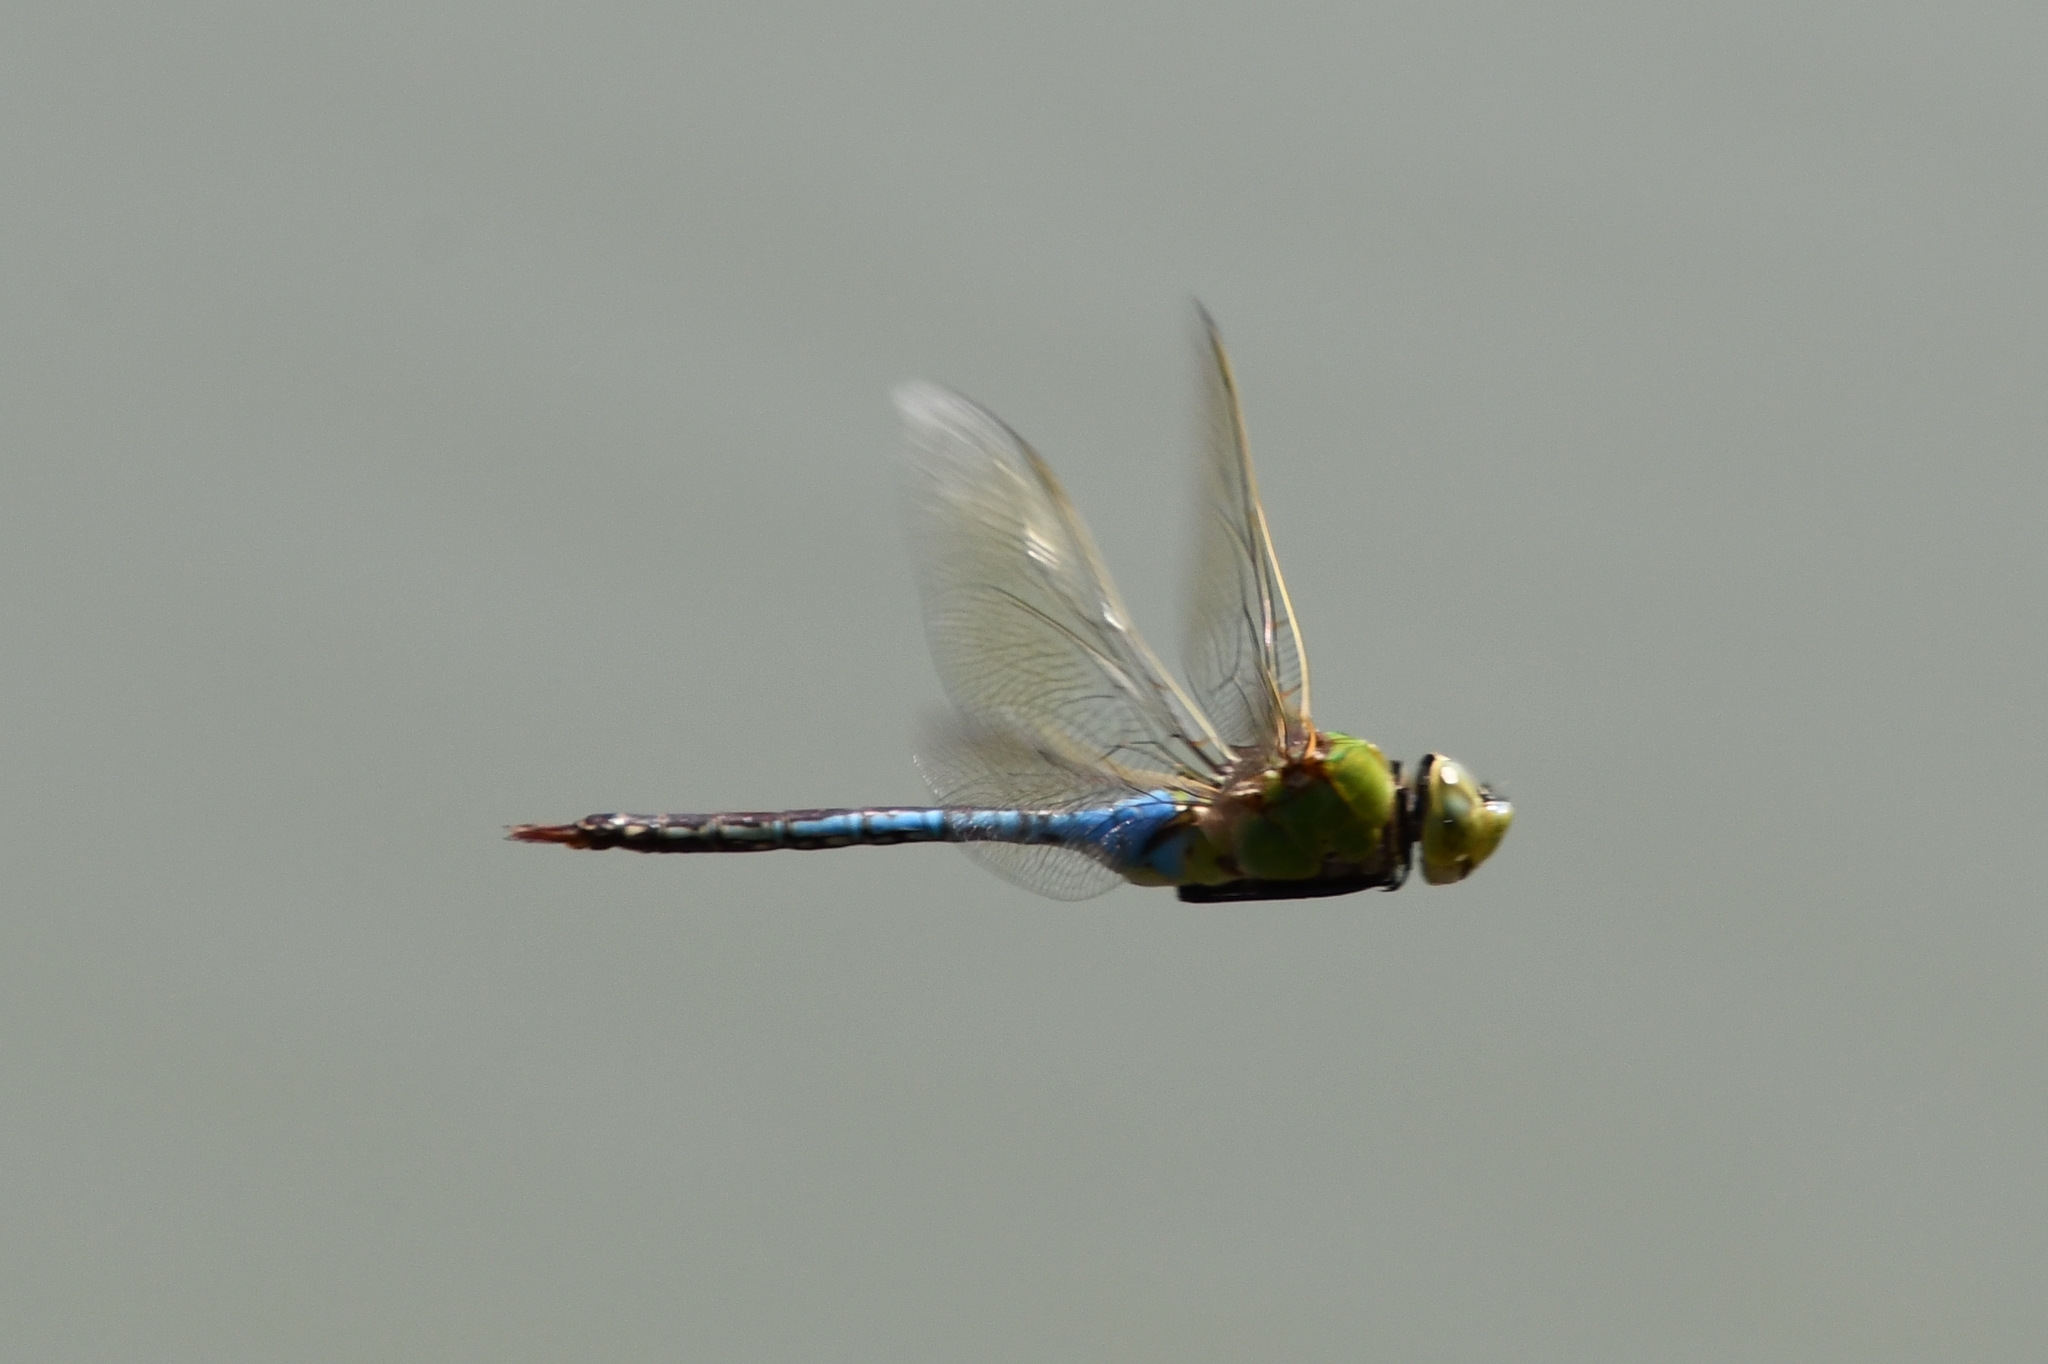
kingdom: Animalia
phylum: Arthropoda
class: Insecta
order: Odonata
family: Aeshnidae
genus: Anax
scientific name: Anax junius
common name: Common green darner
